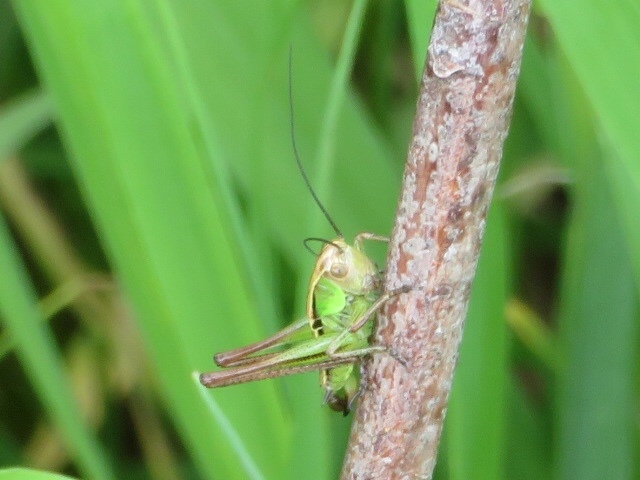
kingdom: Animalia
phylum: Arthropoda
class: Insecta
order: Orthoptera
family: Tettigoniidae
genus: Roeseliana
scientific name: Roeseliana roeselii
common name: Roesel's bush cricket
